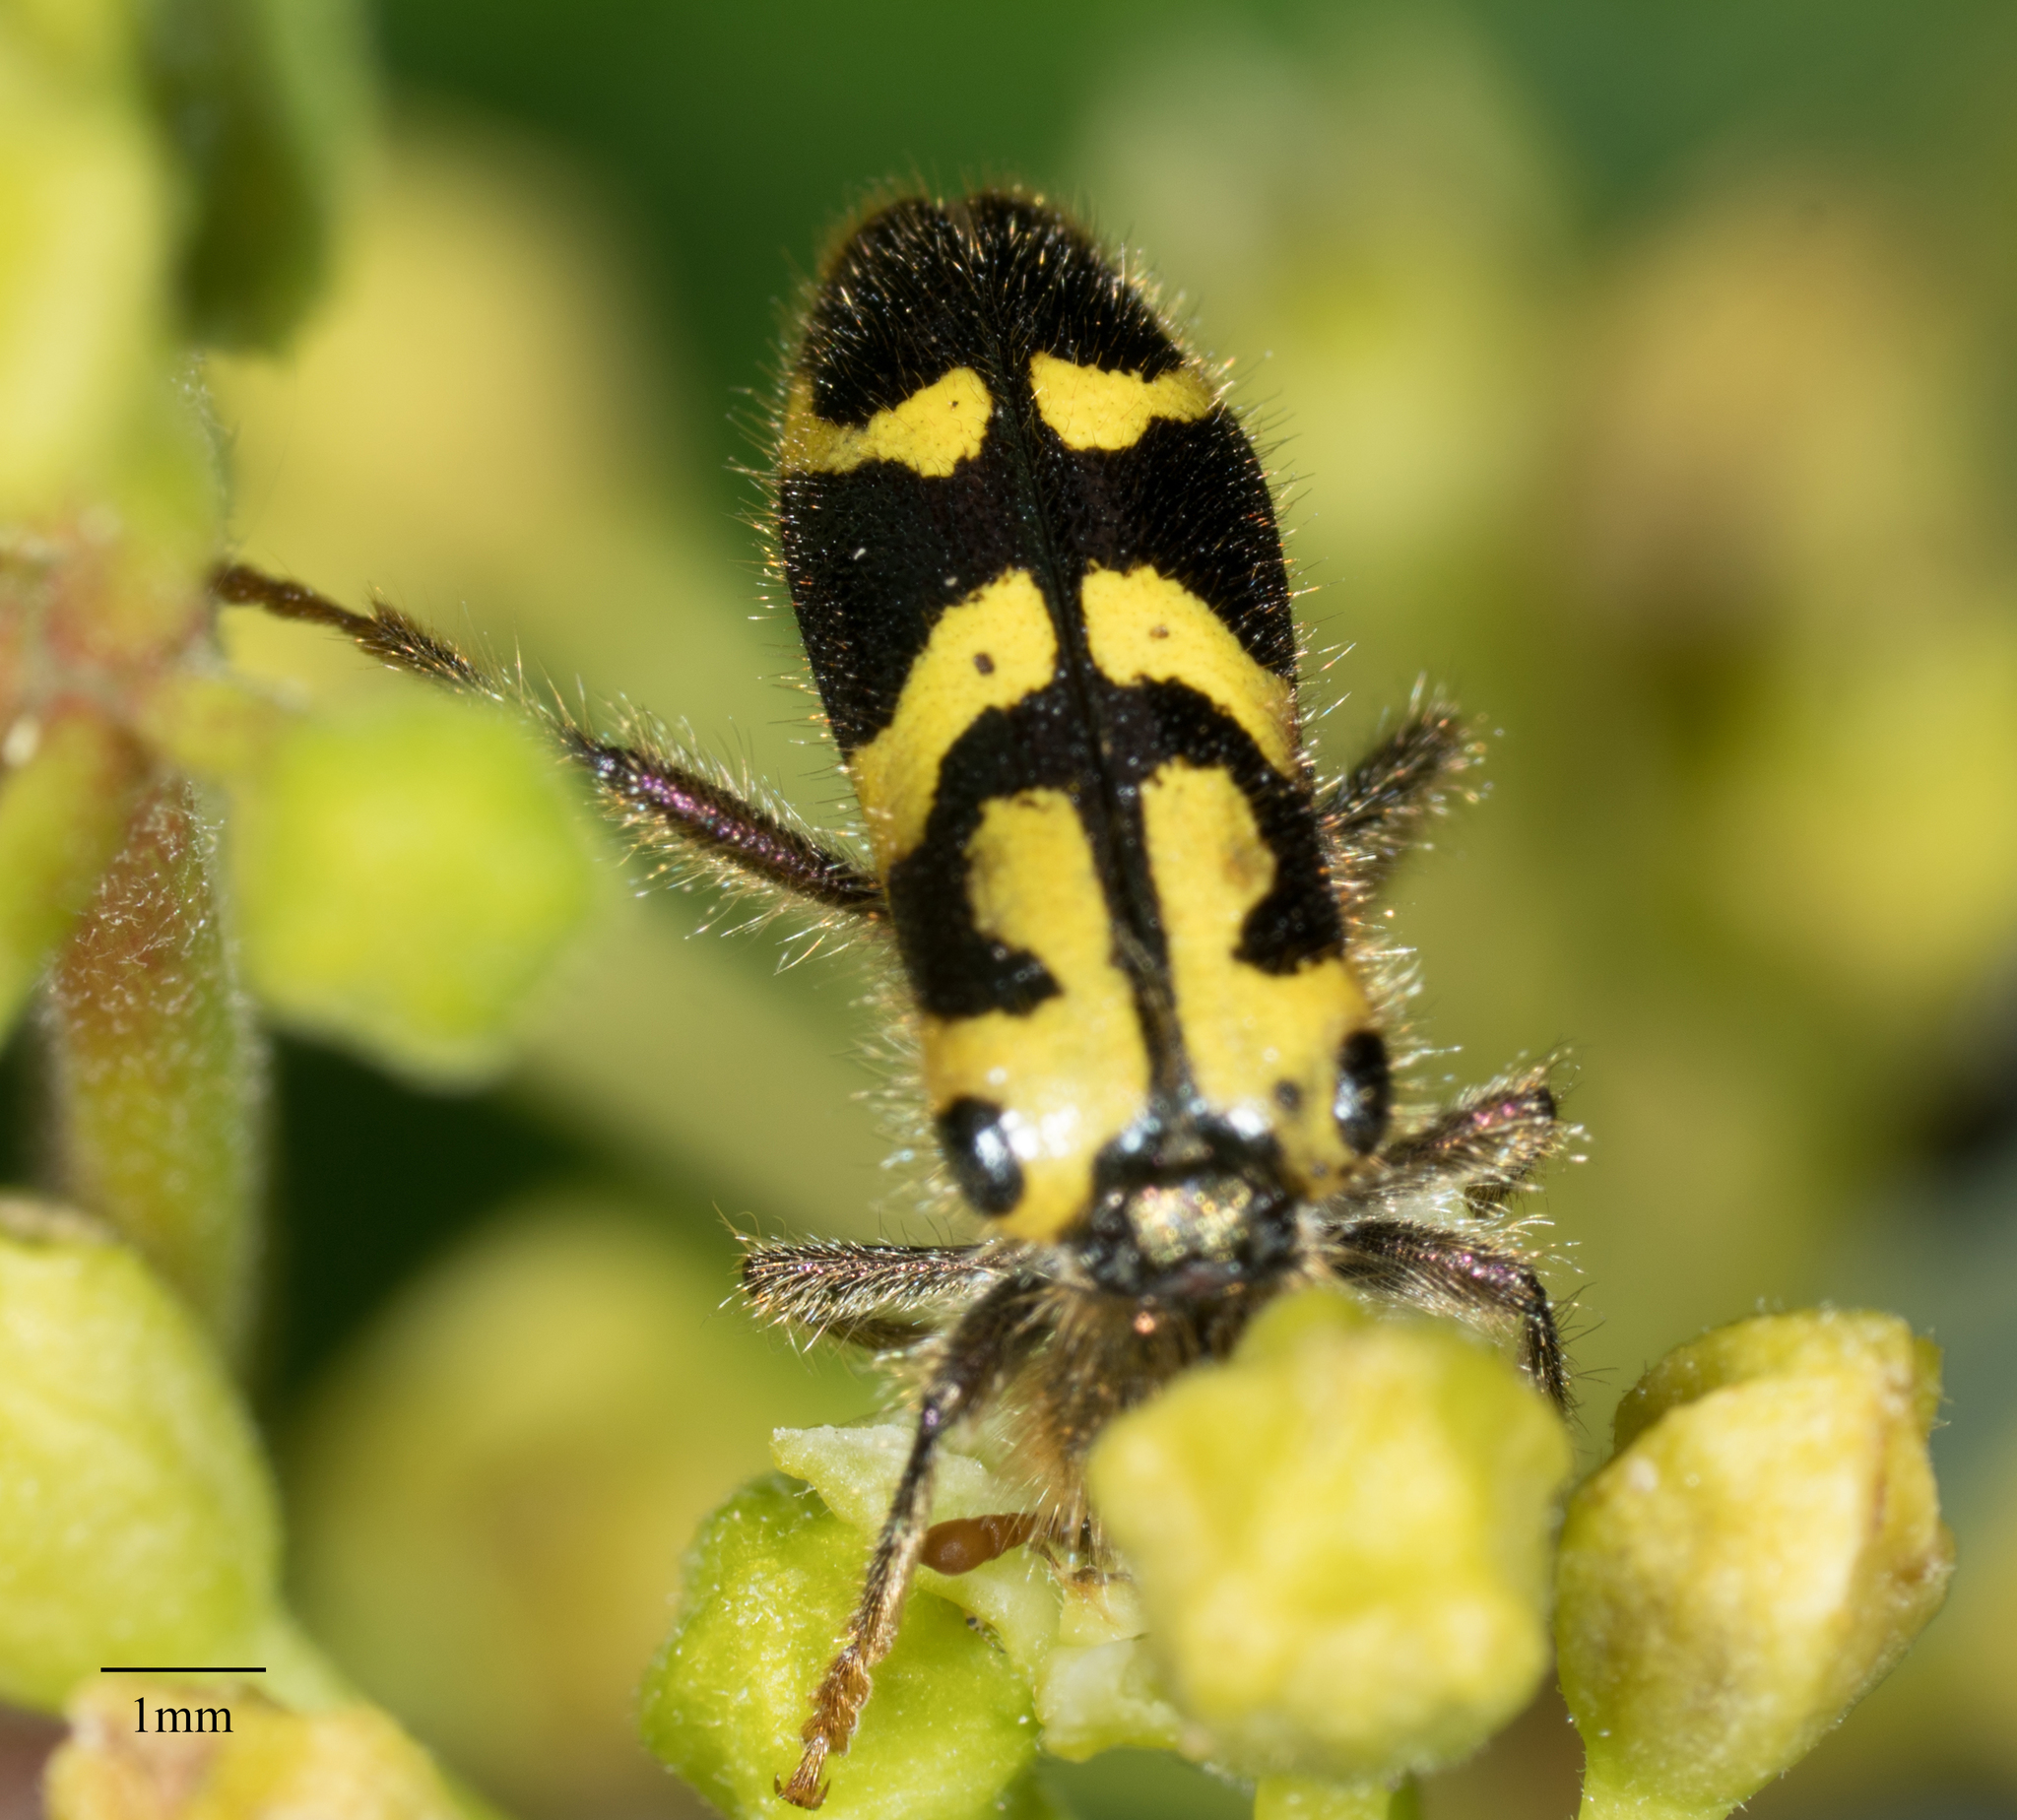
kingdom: Animalia
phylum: Arthropoda
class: Insecta
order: Coleoptera
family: Cleridae
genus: Trichodes
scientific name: Trichodes ornatus
